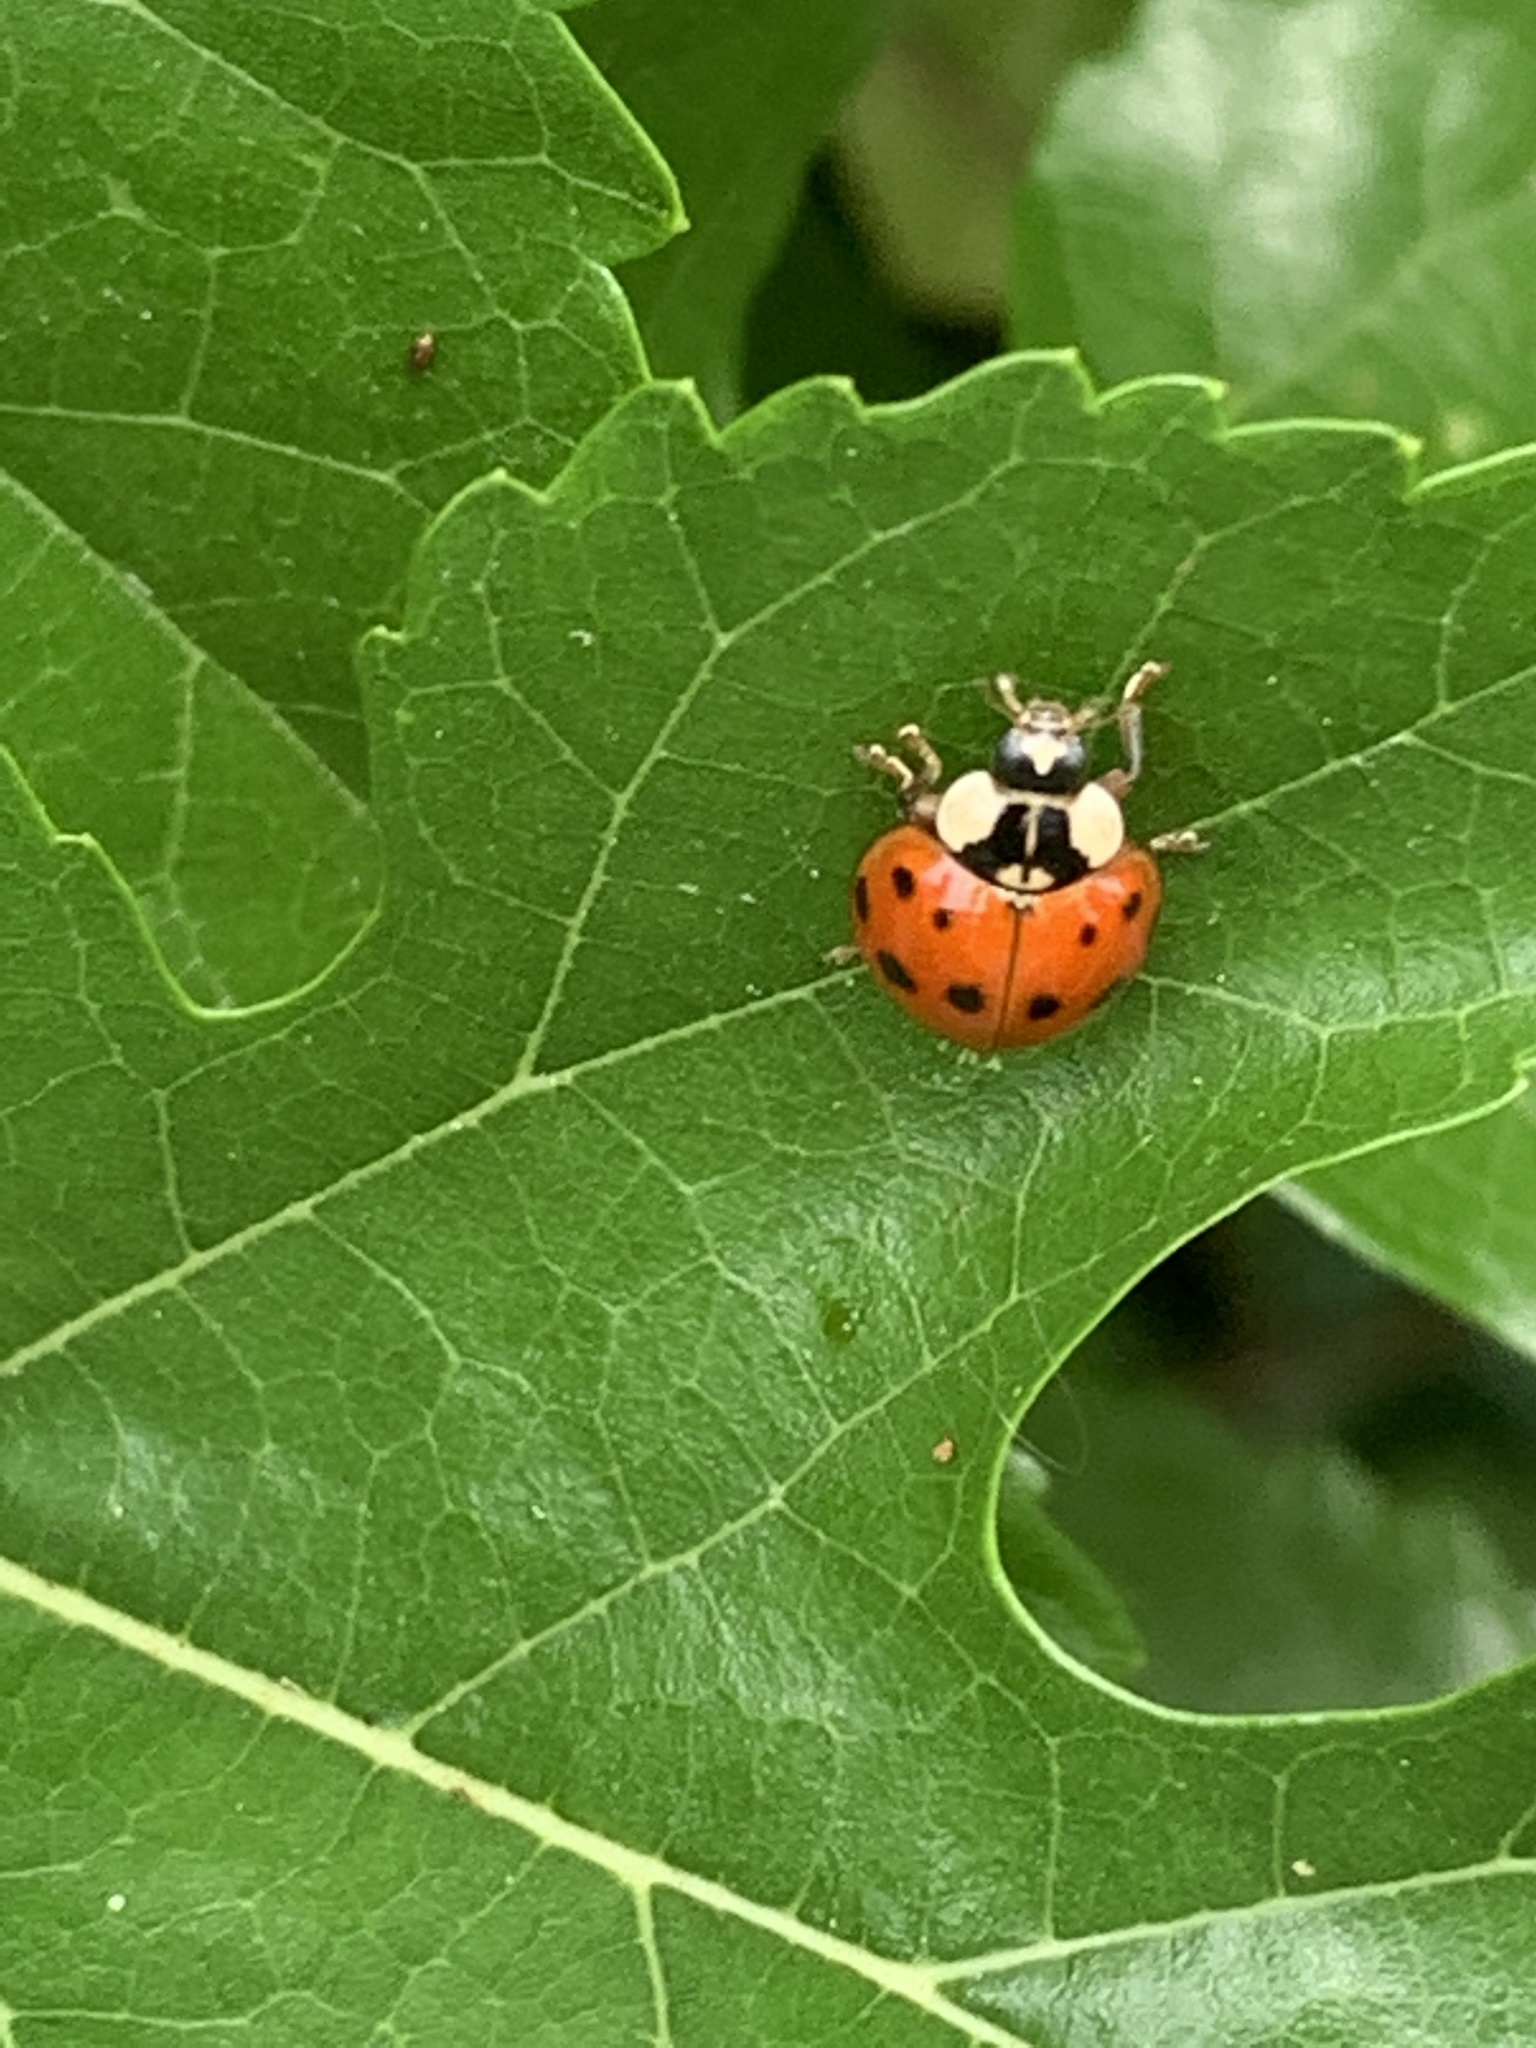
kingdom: Animalia
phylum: Arthropoda
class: Insecta
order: Coleoptera
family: Coccinellidae
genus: Harmonia
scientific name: Harmonia axyridis
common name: Harlequin ladybird
